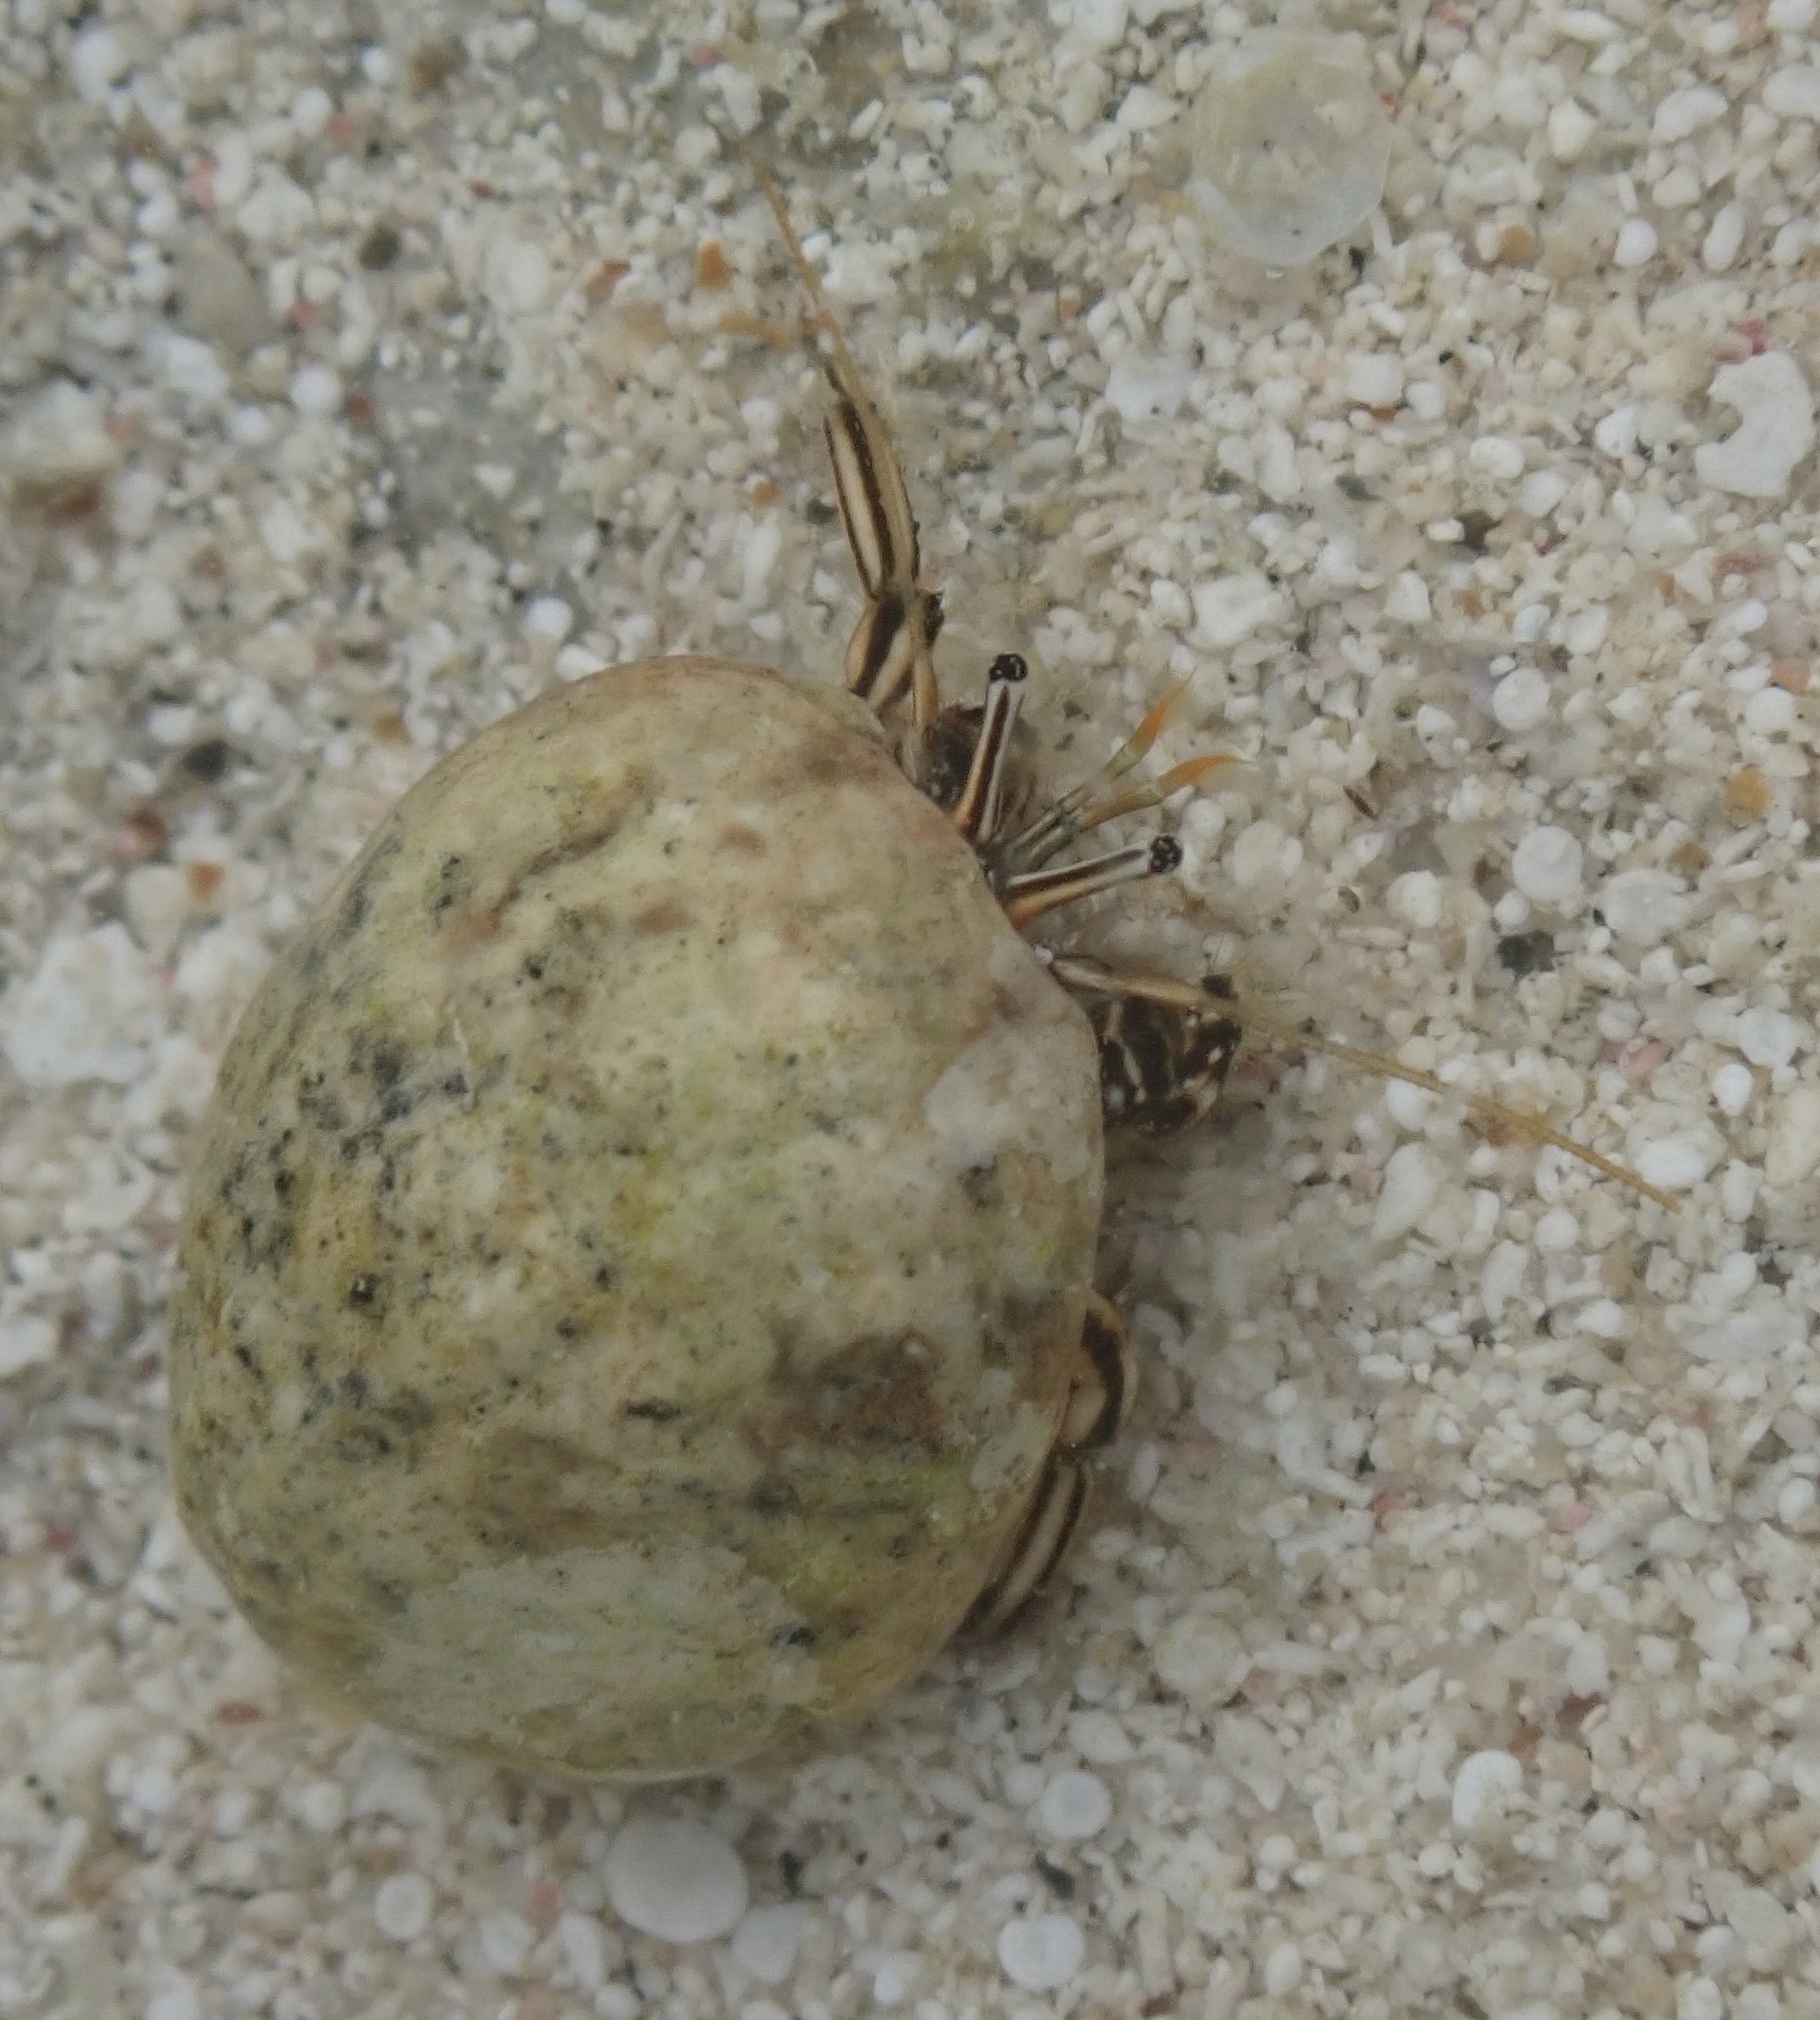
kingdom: Animalia
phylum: Arthropoda
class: Malacostraca
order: Decapoda
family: Diogenidae
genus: Clibanarius
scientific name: Clibanarius signatus
